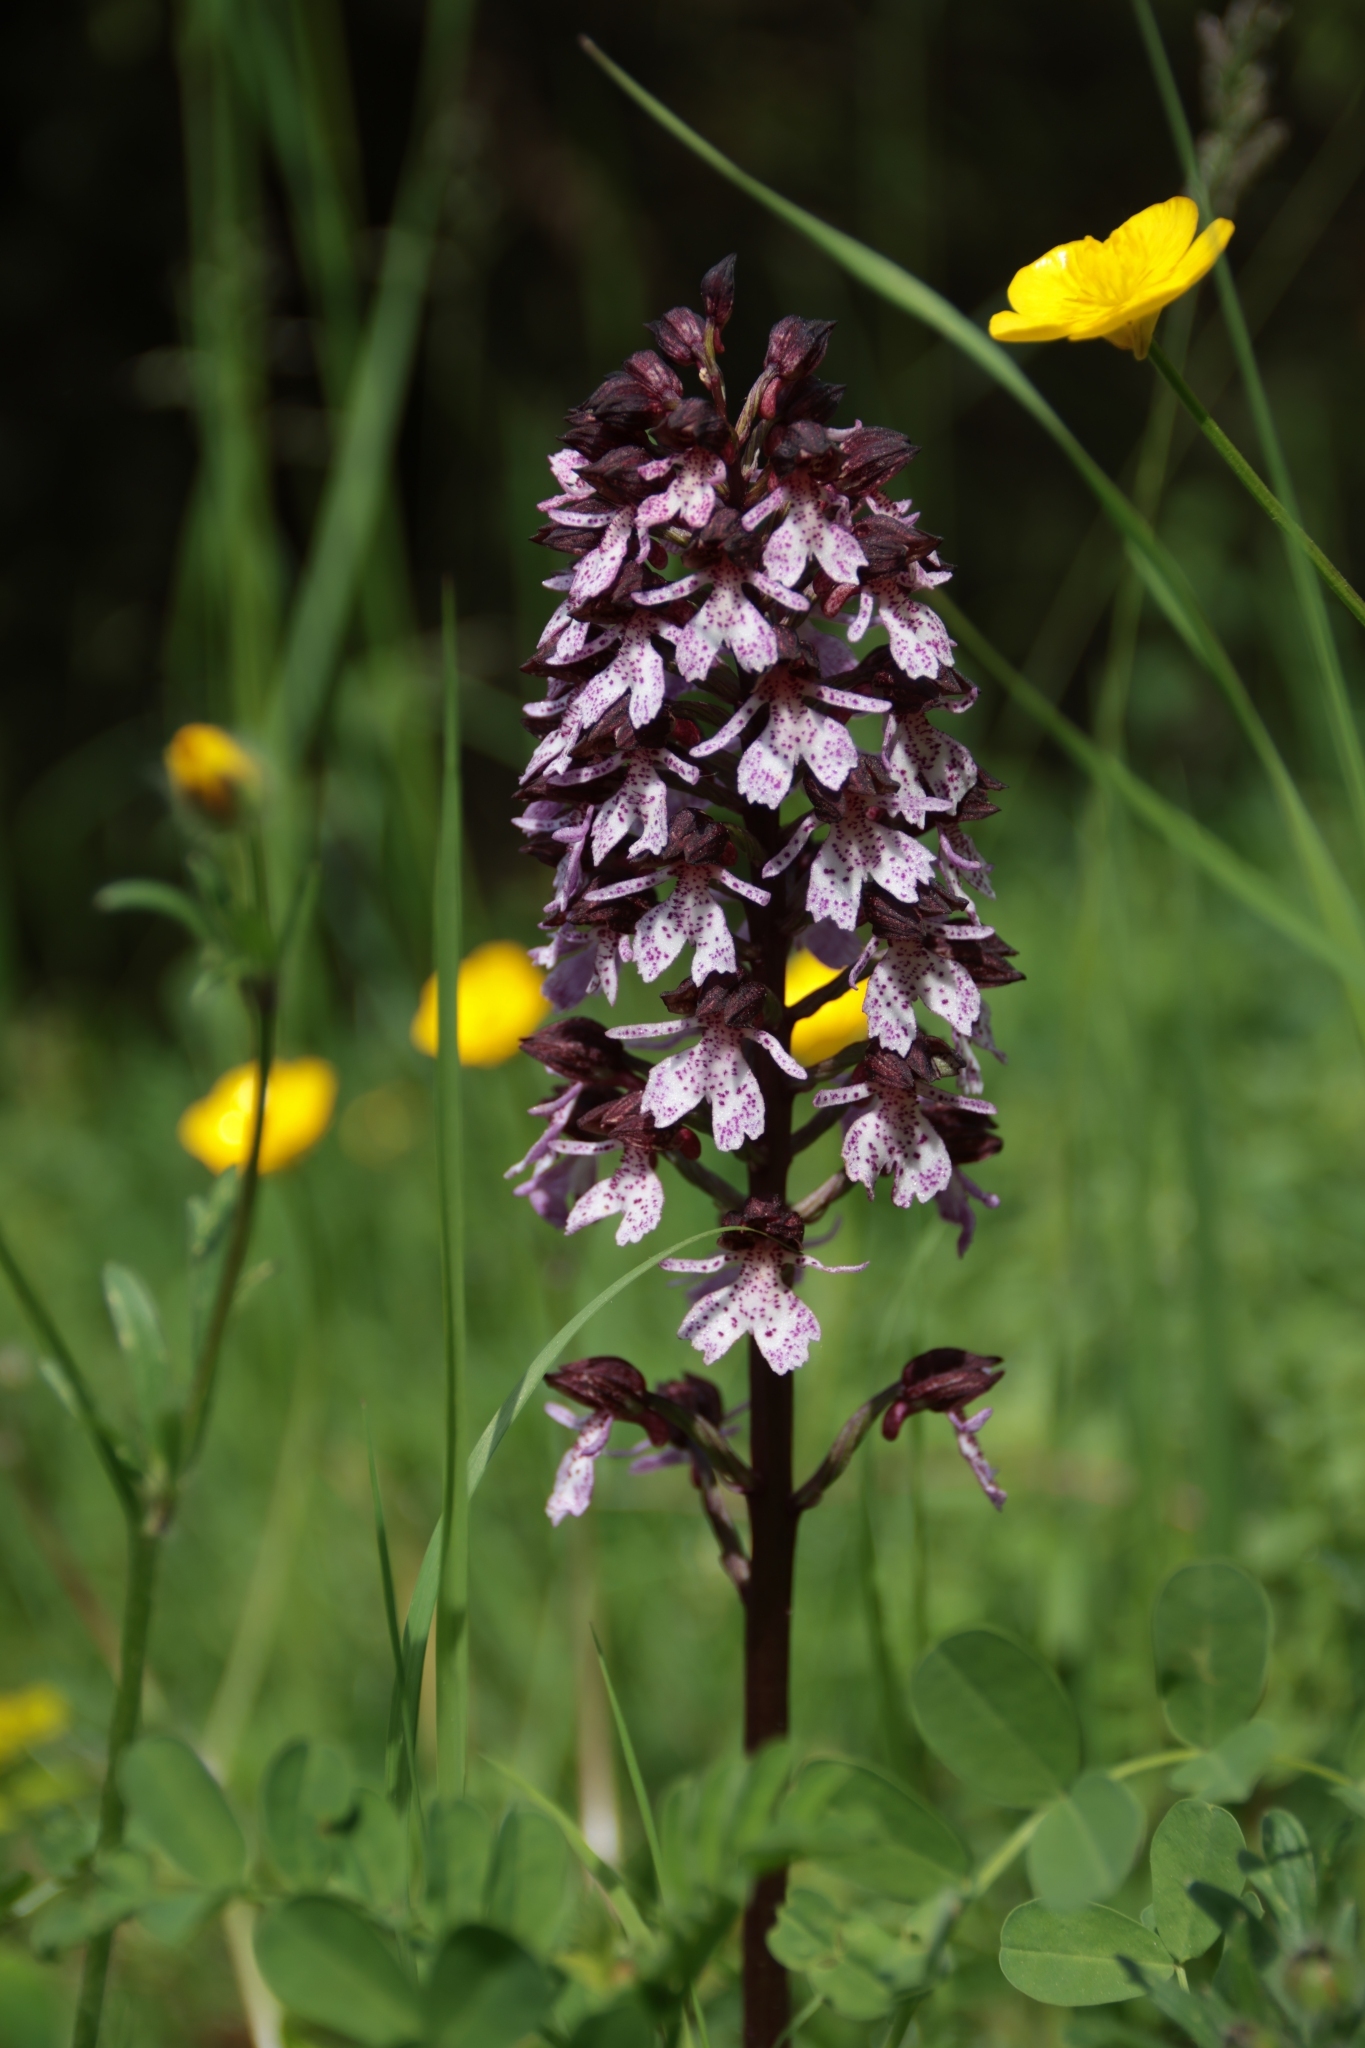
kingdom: Plantae
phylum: Tracheophyta
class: Liliopsida
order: Asparagales
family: Orchidaceae
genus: Orchis
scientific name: Orchis purpurea
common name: Lady orchid
